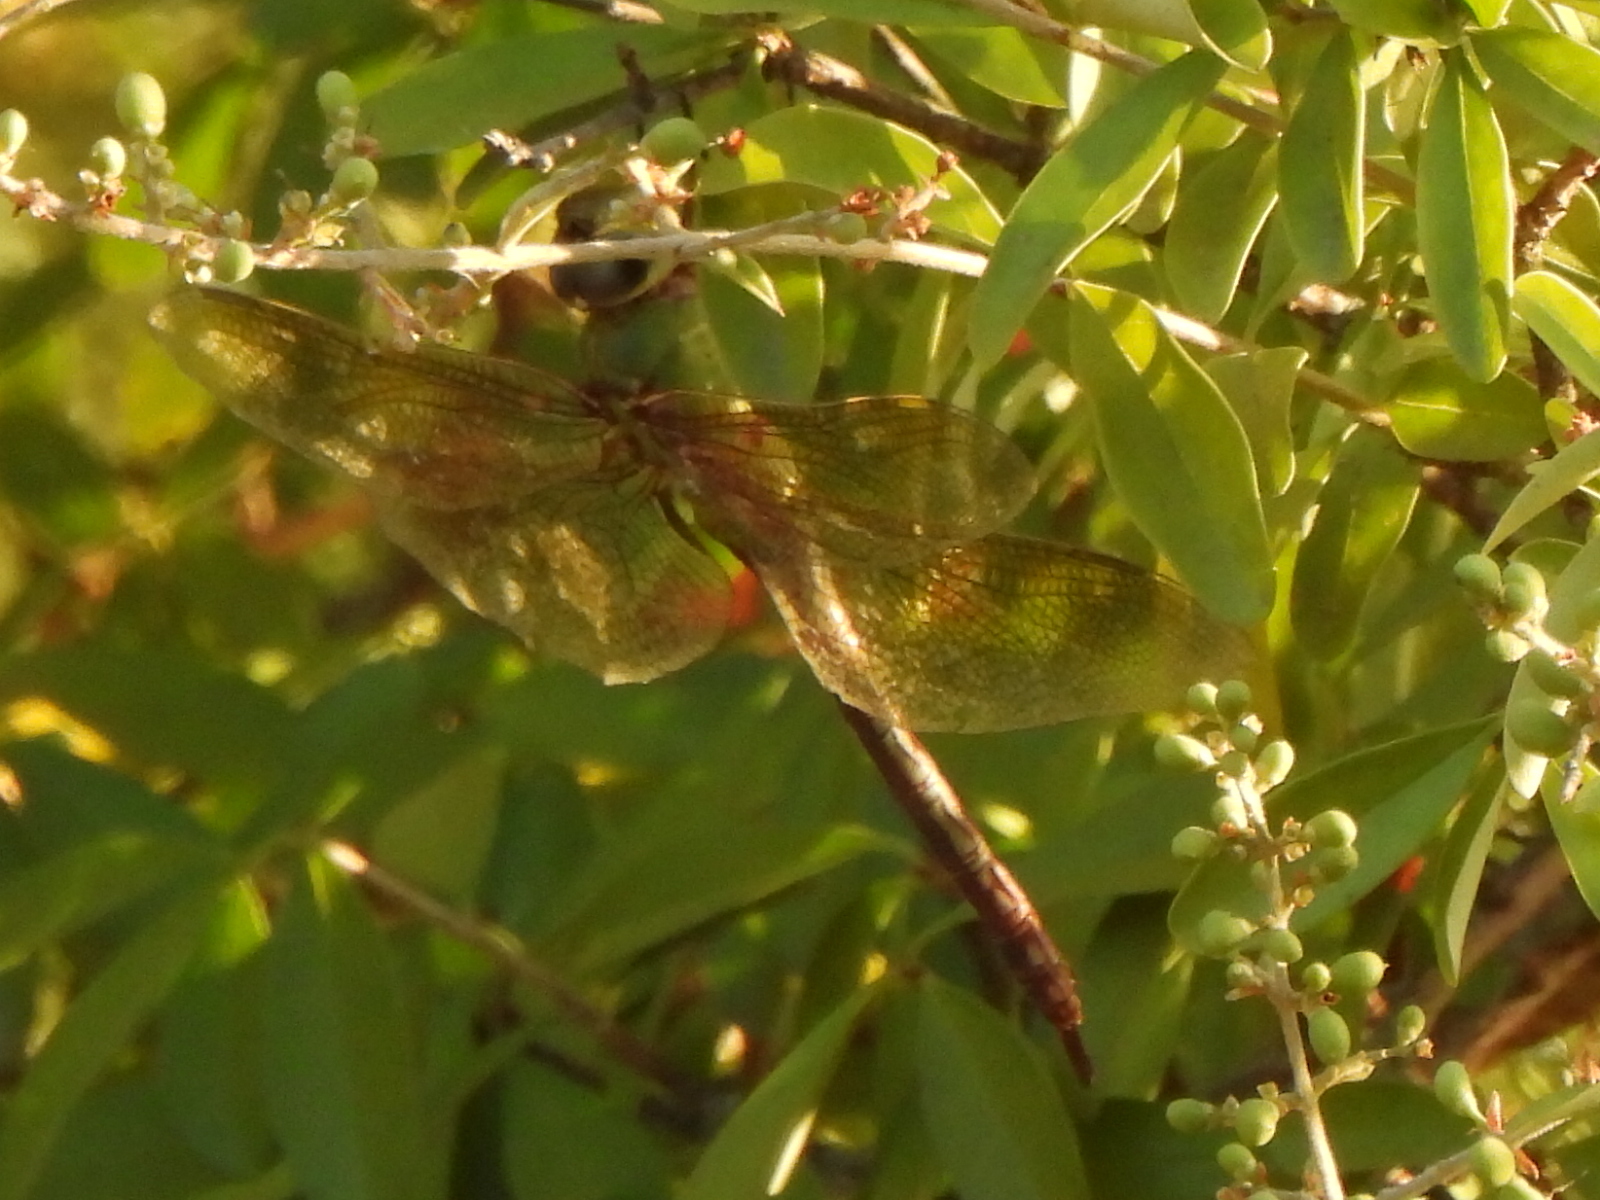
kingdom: Animalia
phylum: Arthropoda
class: Insecta
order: Odonata
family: Aeshnidae
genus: Anax
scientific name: Anax junius
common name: Common green darner
